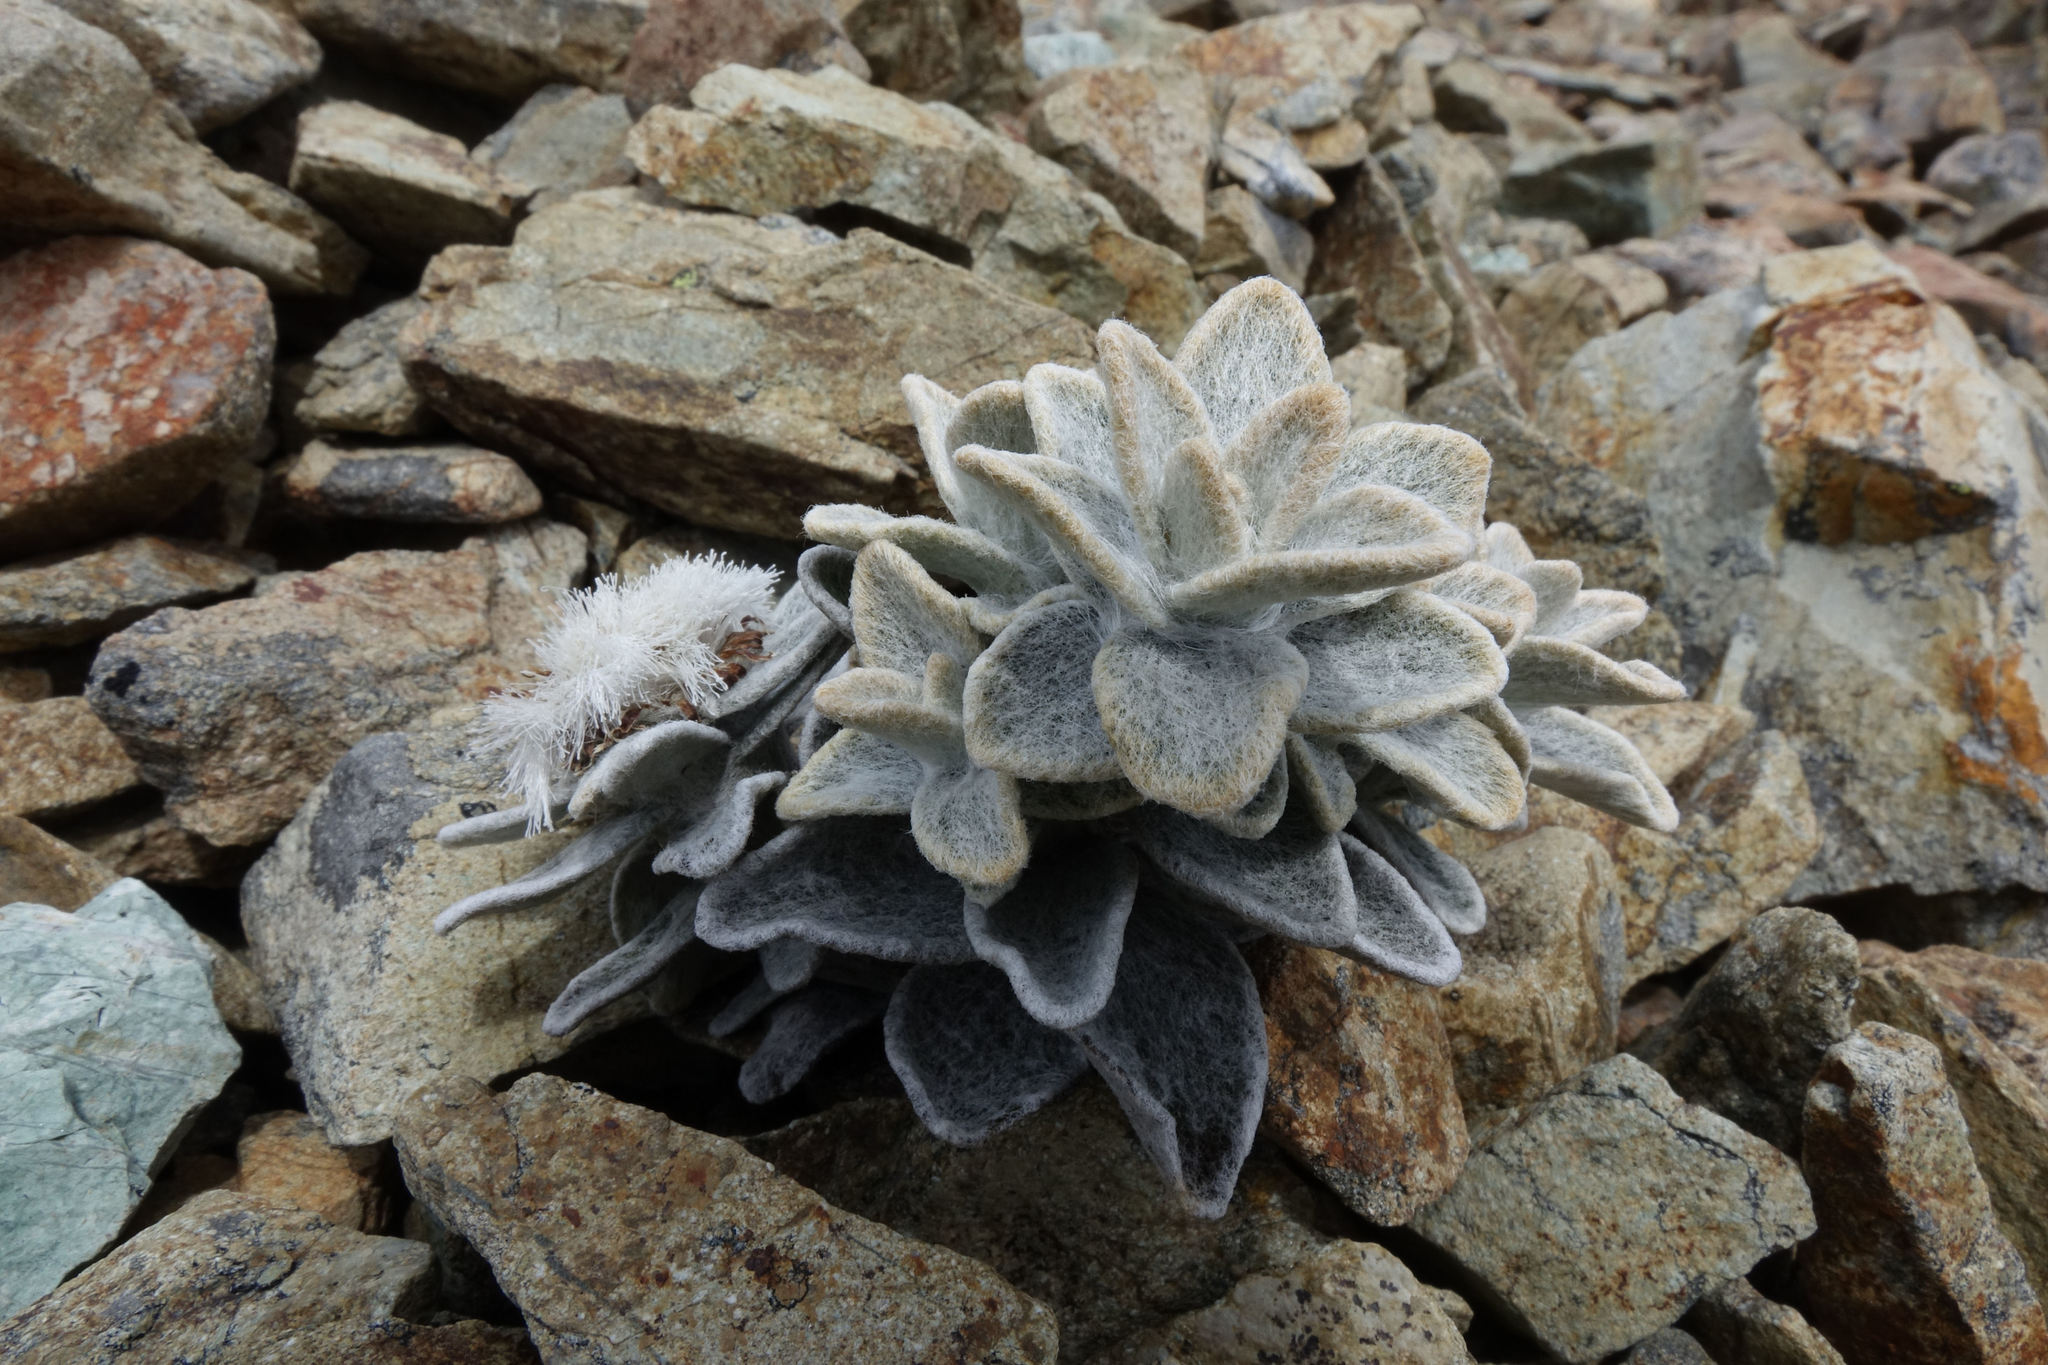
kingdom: Plantae
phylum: Tracheophyta
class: Magnoliopsida
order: Asterales
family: Asteraceae
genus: Haastia
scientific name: Haastia sinclairii
